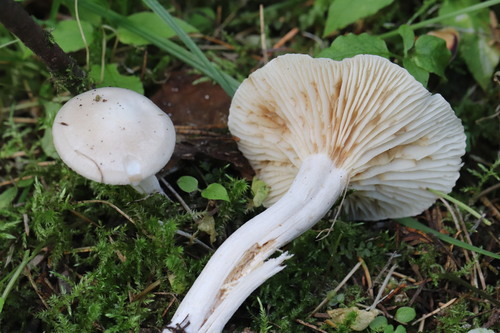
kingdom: Fungi
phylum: Basidiomycota
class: Agaricomycetes
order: Agaricales
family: Hygrophoraceae
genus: Hygrophorus
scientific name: Hygrophorus piceae
